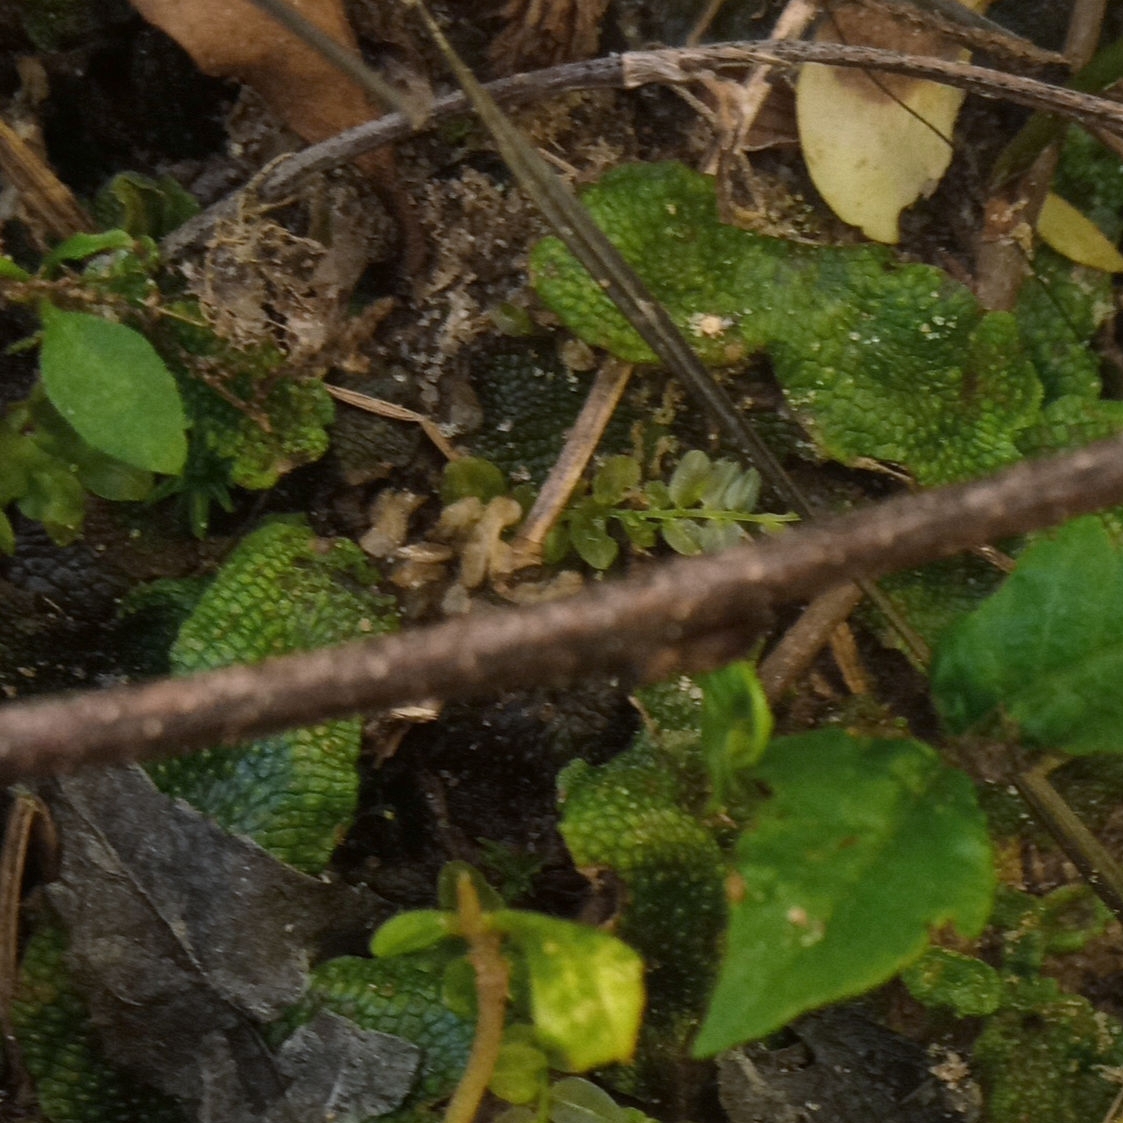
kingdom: Plantae
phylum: Marchantiophyta
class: Marchantiopsida
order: Marchantiales
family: Conocephalaceae
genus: Conocephalum
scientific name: Conocephalum salebrosum
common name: Cat-tongue liverwort
